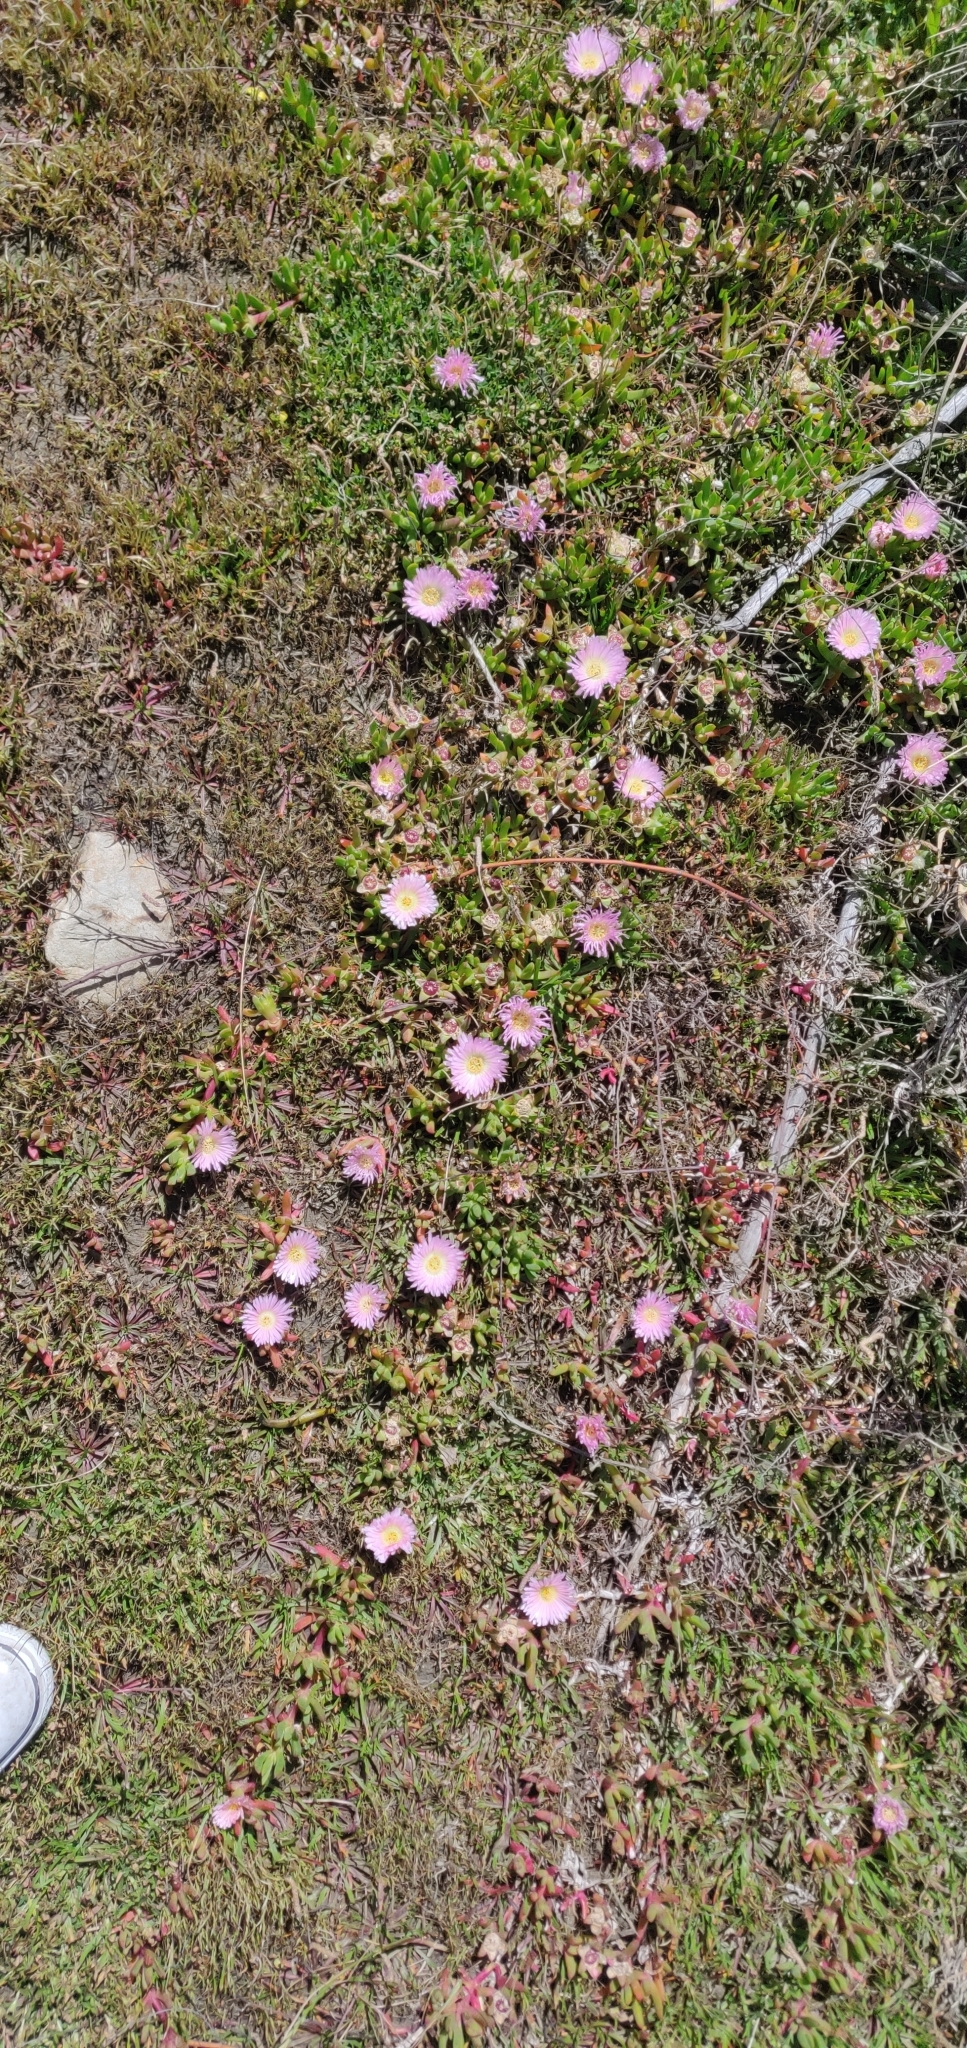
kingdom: Plantae
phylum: Tracheophyta
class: Magnoliopsida
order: Caryophyllales
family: Aizoaceae
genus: Disphyma
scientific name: Disphyma australe
